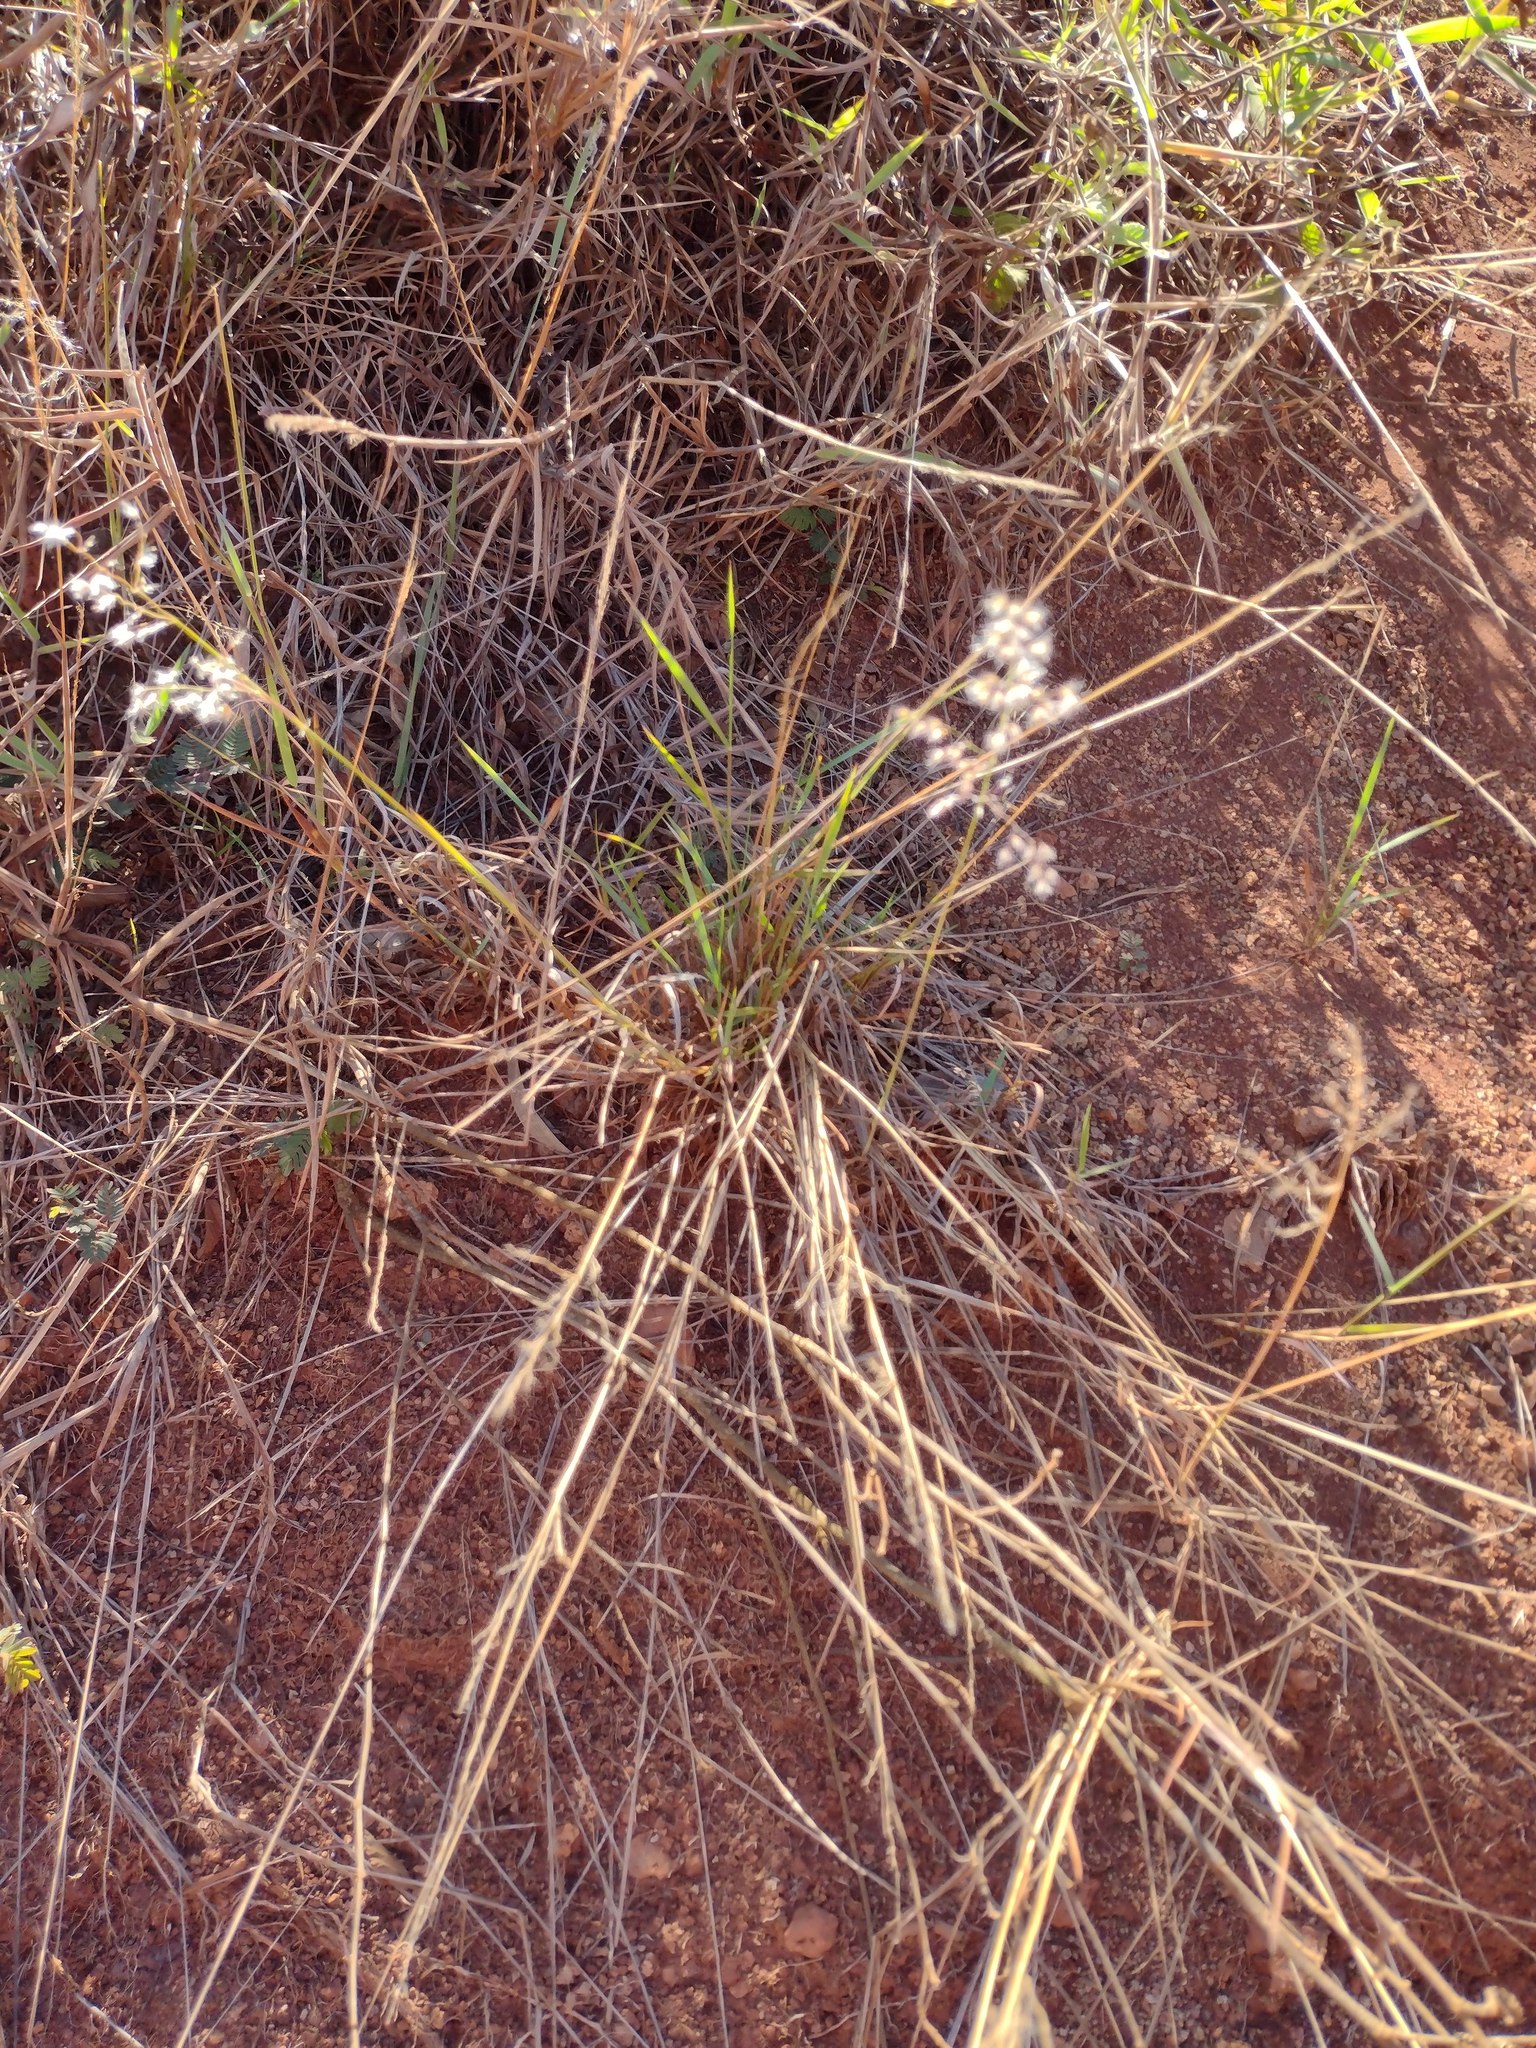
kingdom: Plantae
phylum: Tracheophyta
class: Liliopsida
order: Poales
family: Poaceae
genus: Melinis
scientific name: Melinis repens
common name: Rose natal grass
